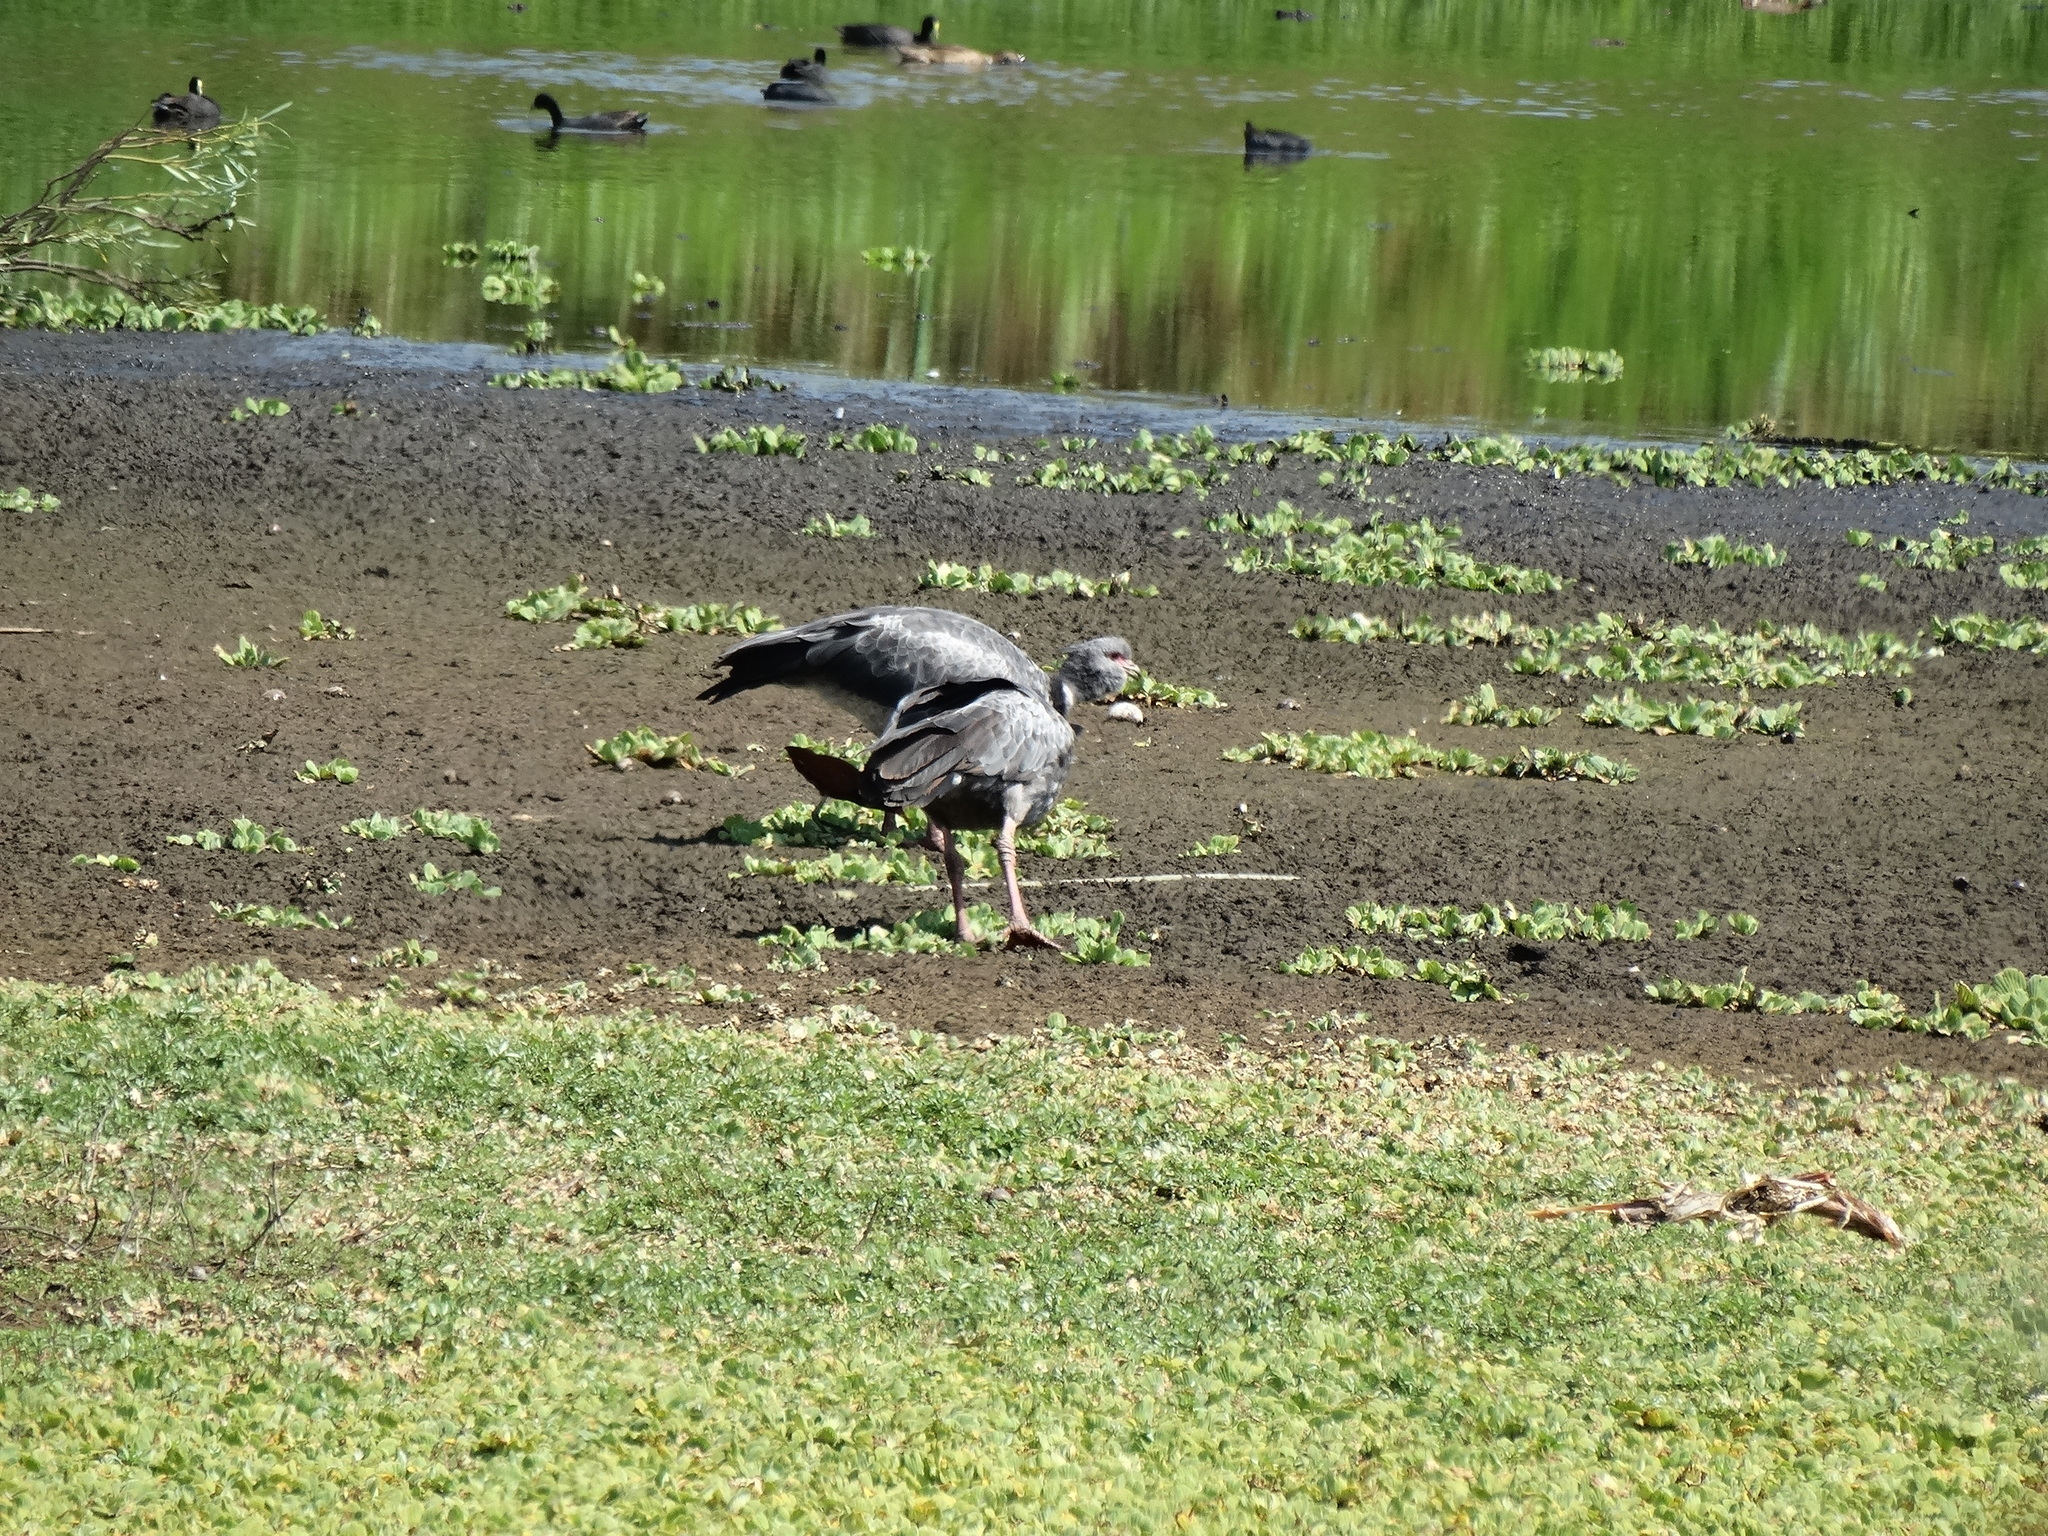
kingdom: Animalia
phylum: Chordata
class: Aves
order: Anseriformes
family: Anhimidae
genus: Chauna
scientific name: Chauna torquata
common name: Southern screamer
